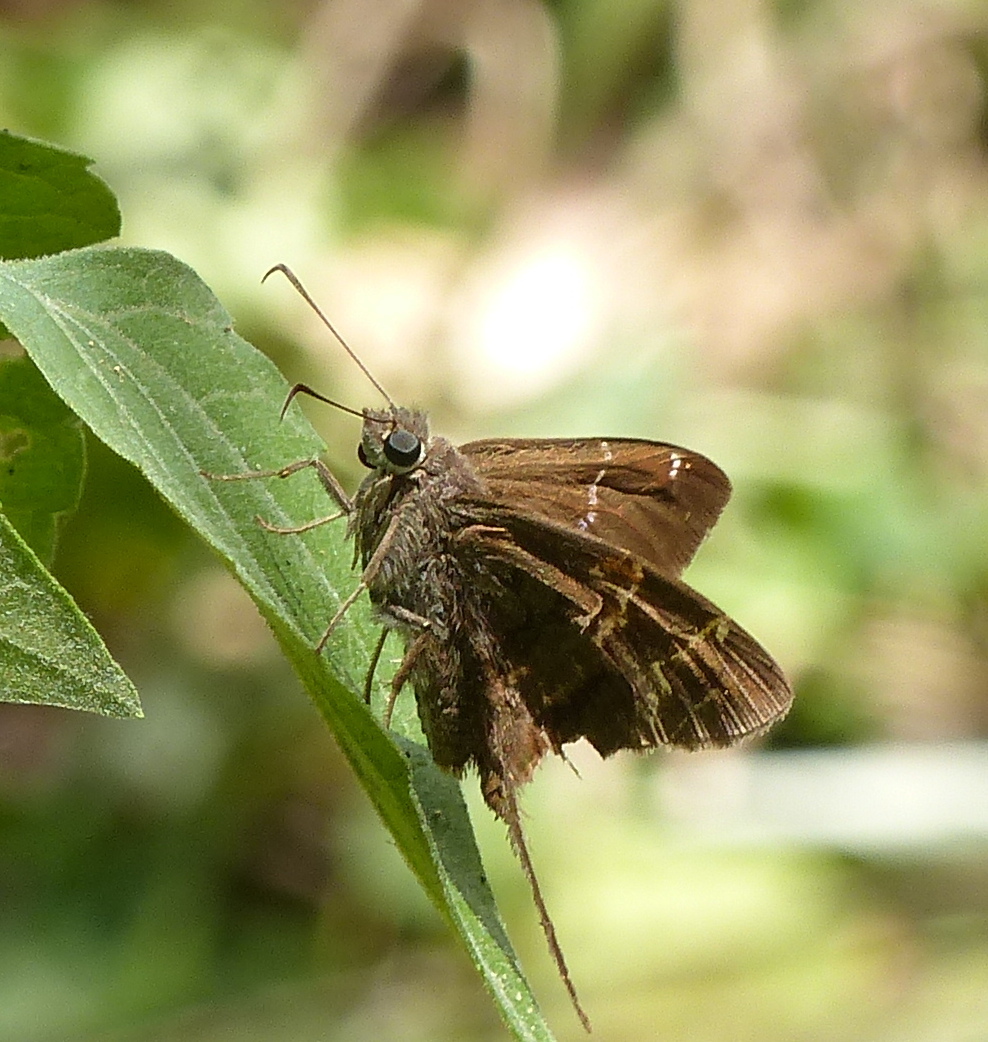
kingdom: Animalia
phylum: Arthropoda
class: Insecta
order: Lepidoptera
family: Hesperiidae
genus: Urbanus
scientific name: Urbanus teleus
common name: Teleus longtail
